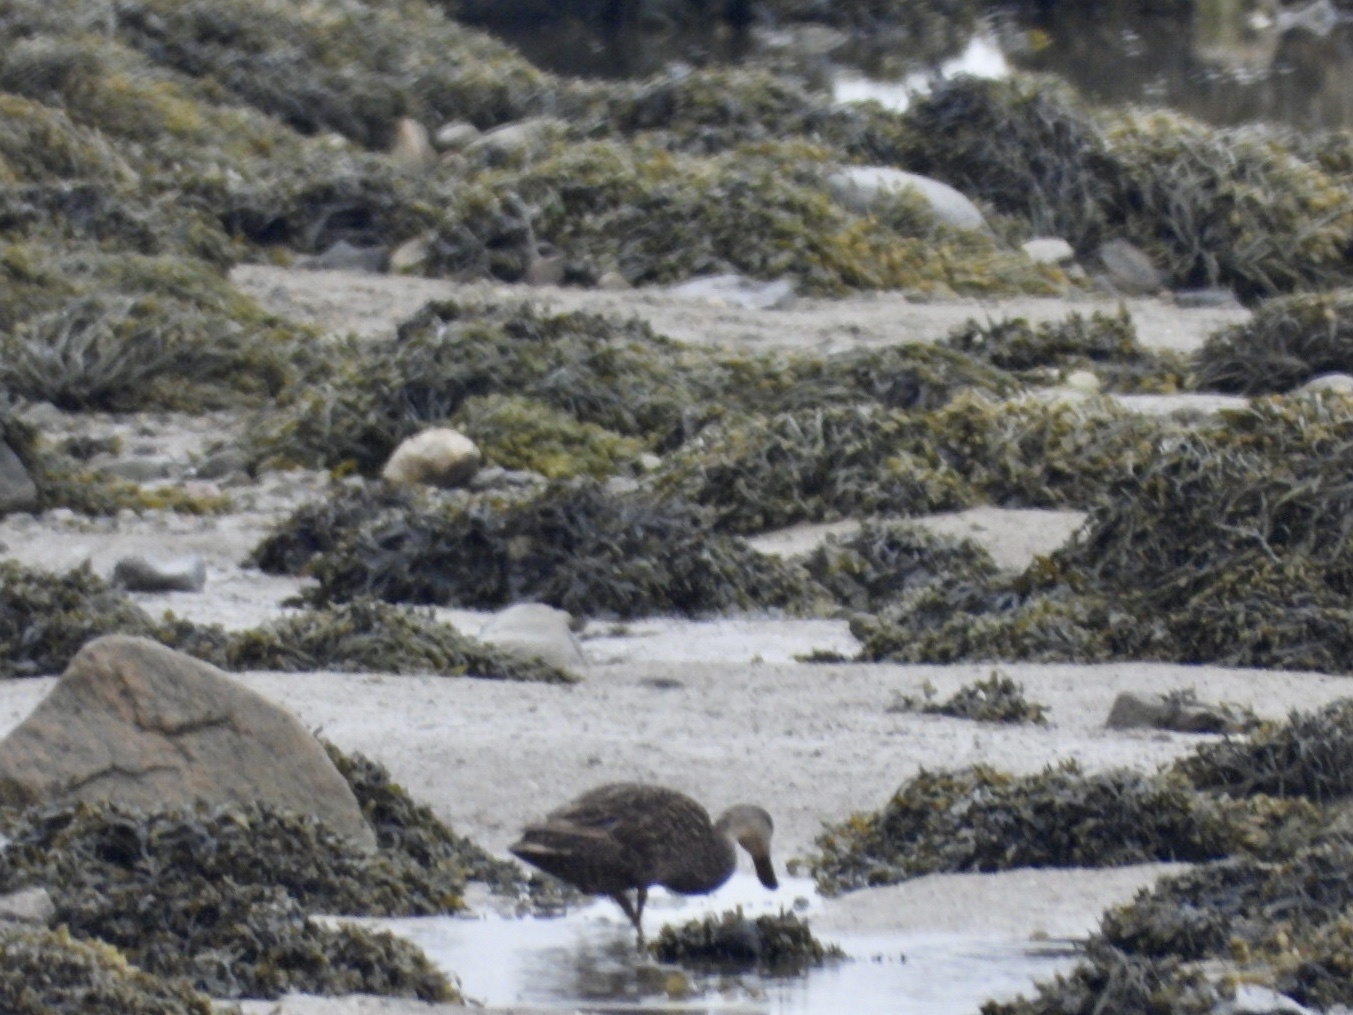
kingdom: Animalia
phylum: Chordata
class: Aves
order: Anseriformes
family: Anatidae
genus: Anas
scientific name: Anas rubripes
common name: American black duck
